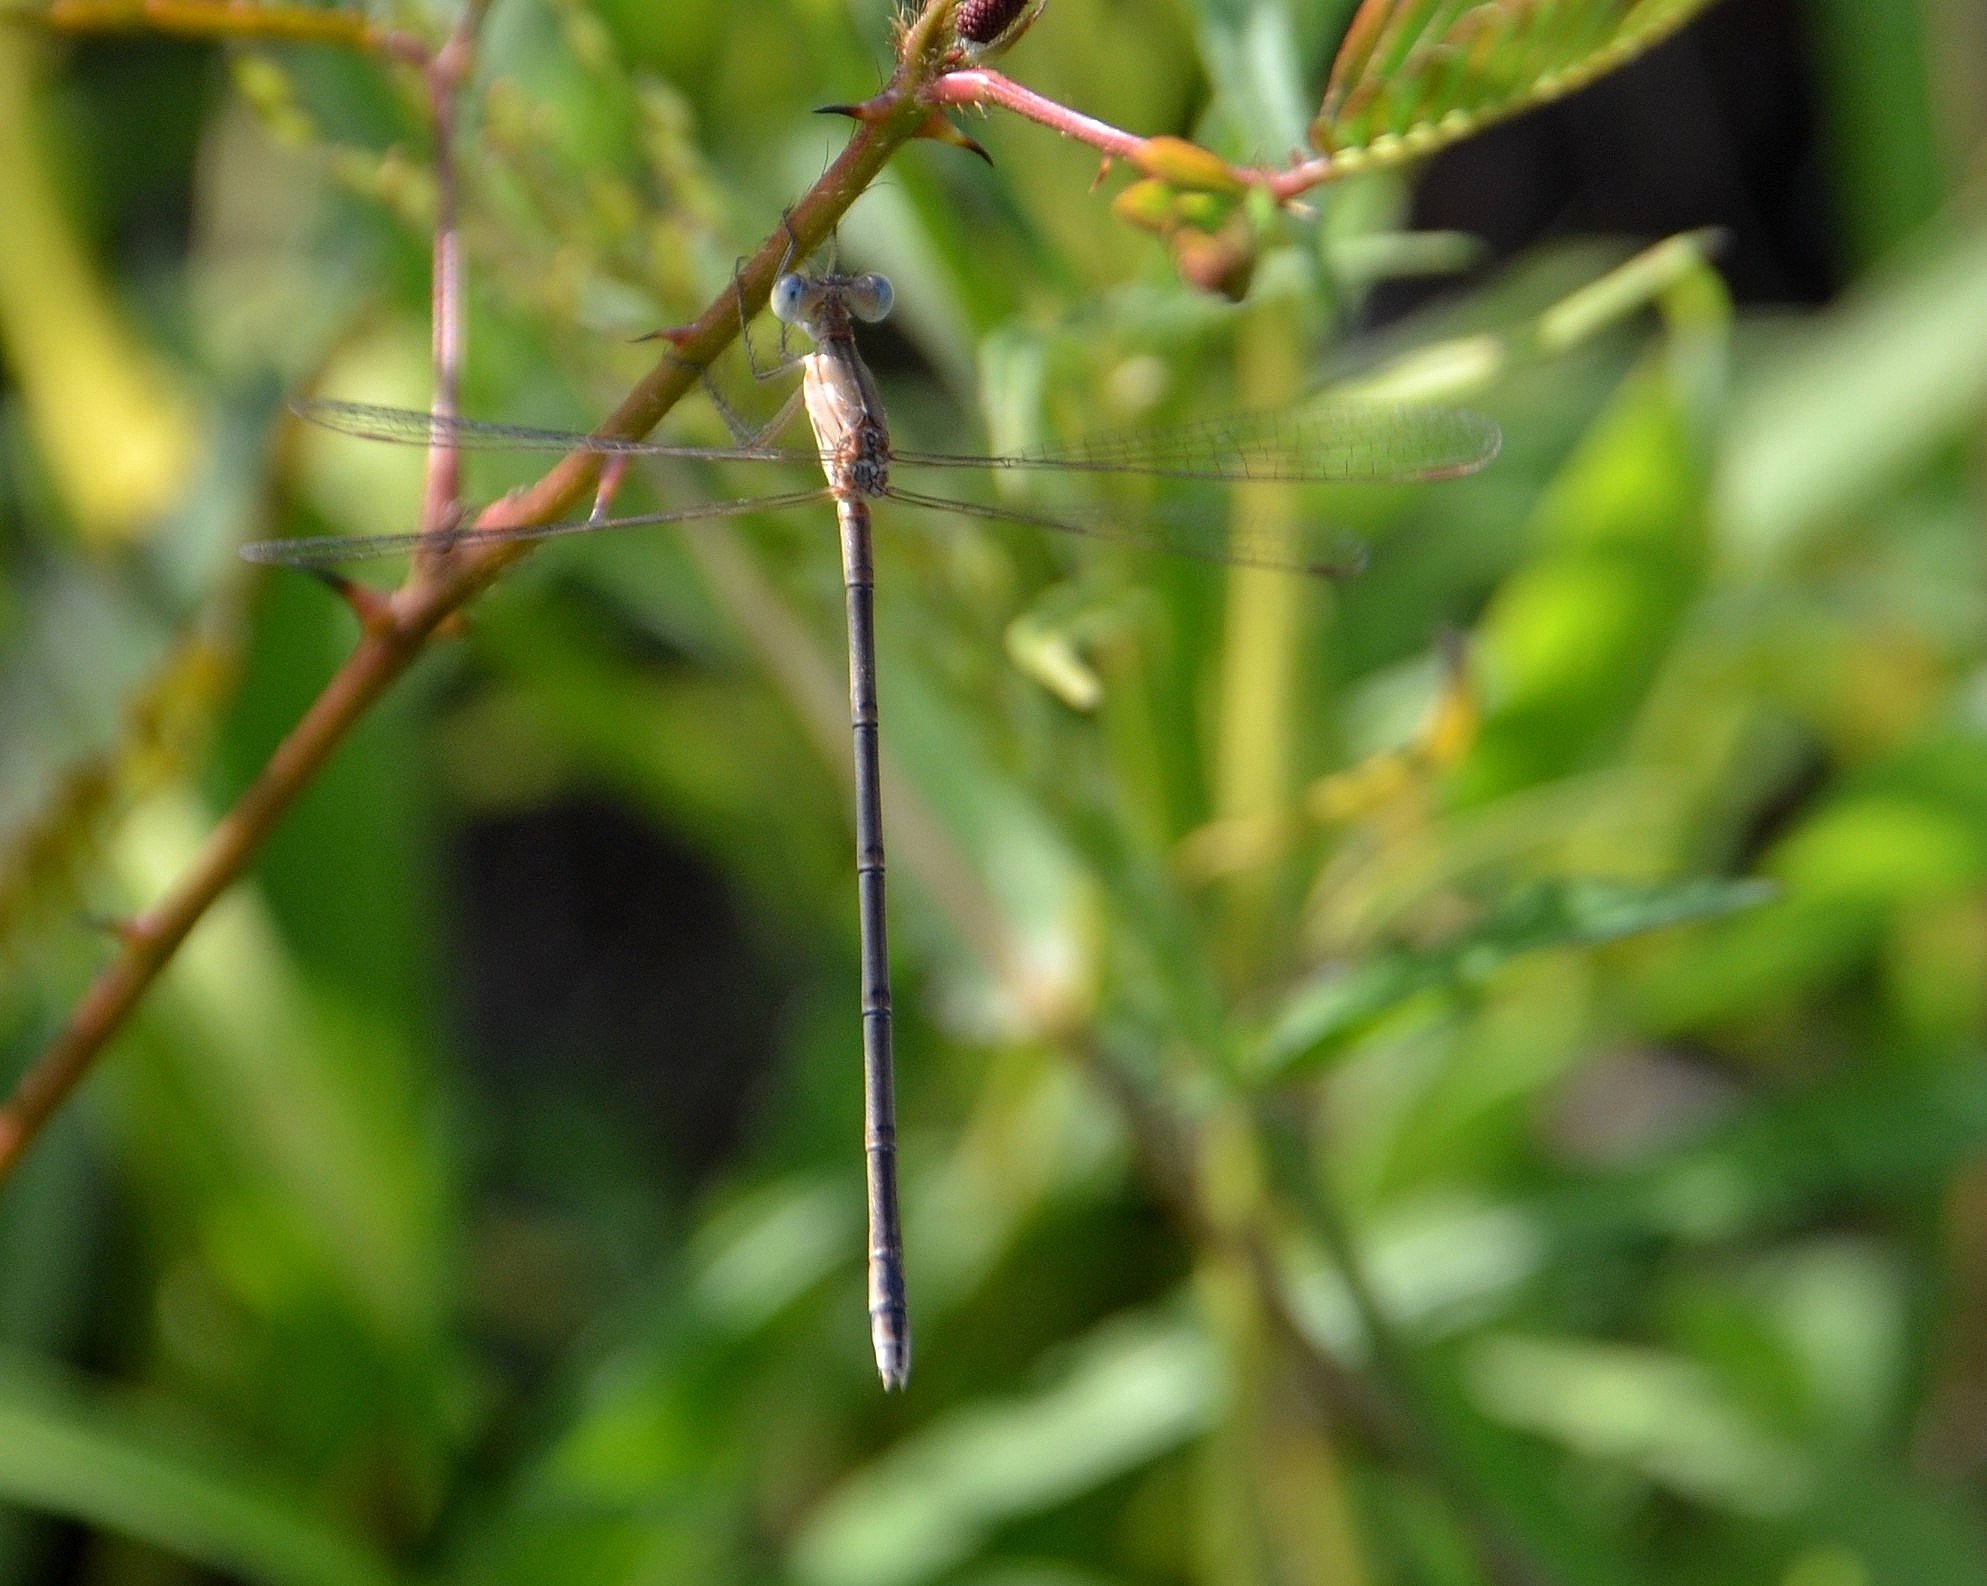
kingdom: Animalia
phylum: Arthropoda
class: Insecta
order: Odonata
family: Lestidae
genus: Lestes
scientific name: Lestes concinnus
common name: Dusky spreadwing
